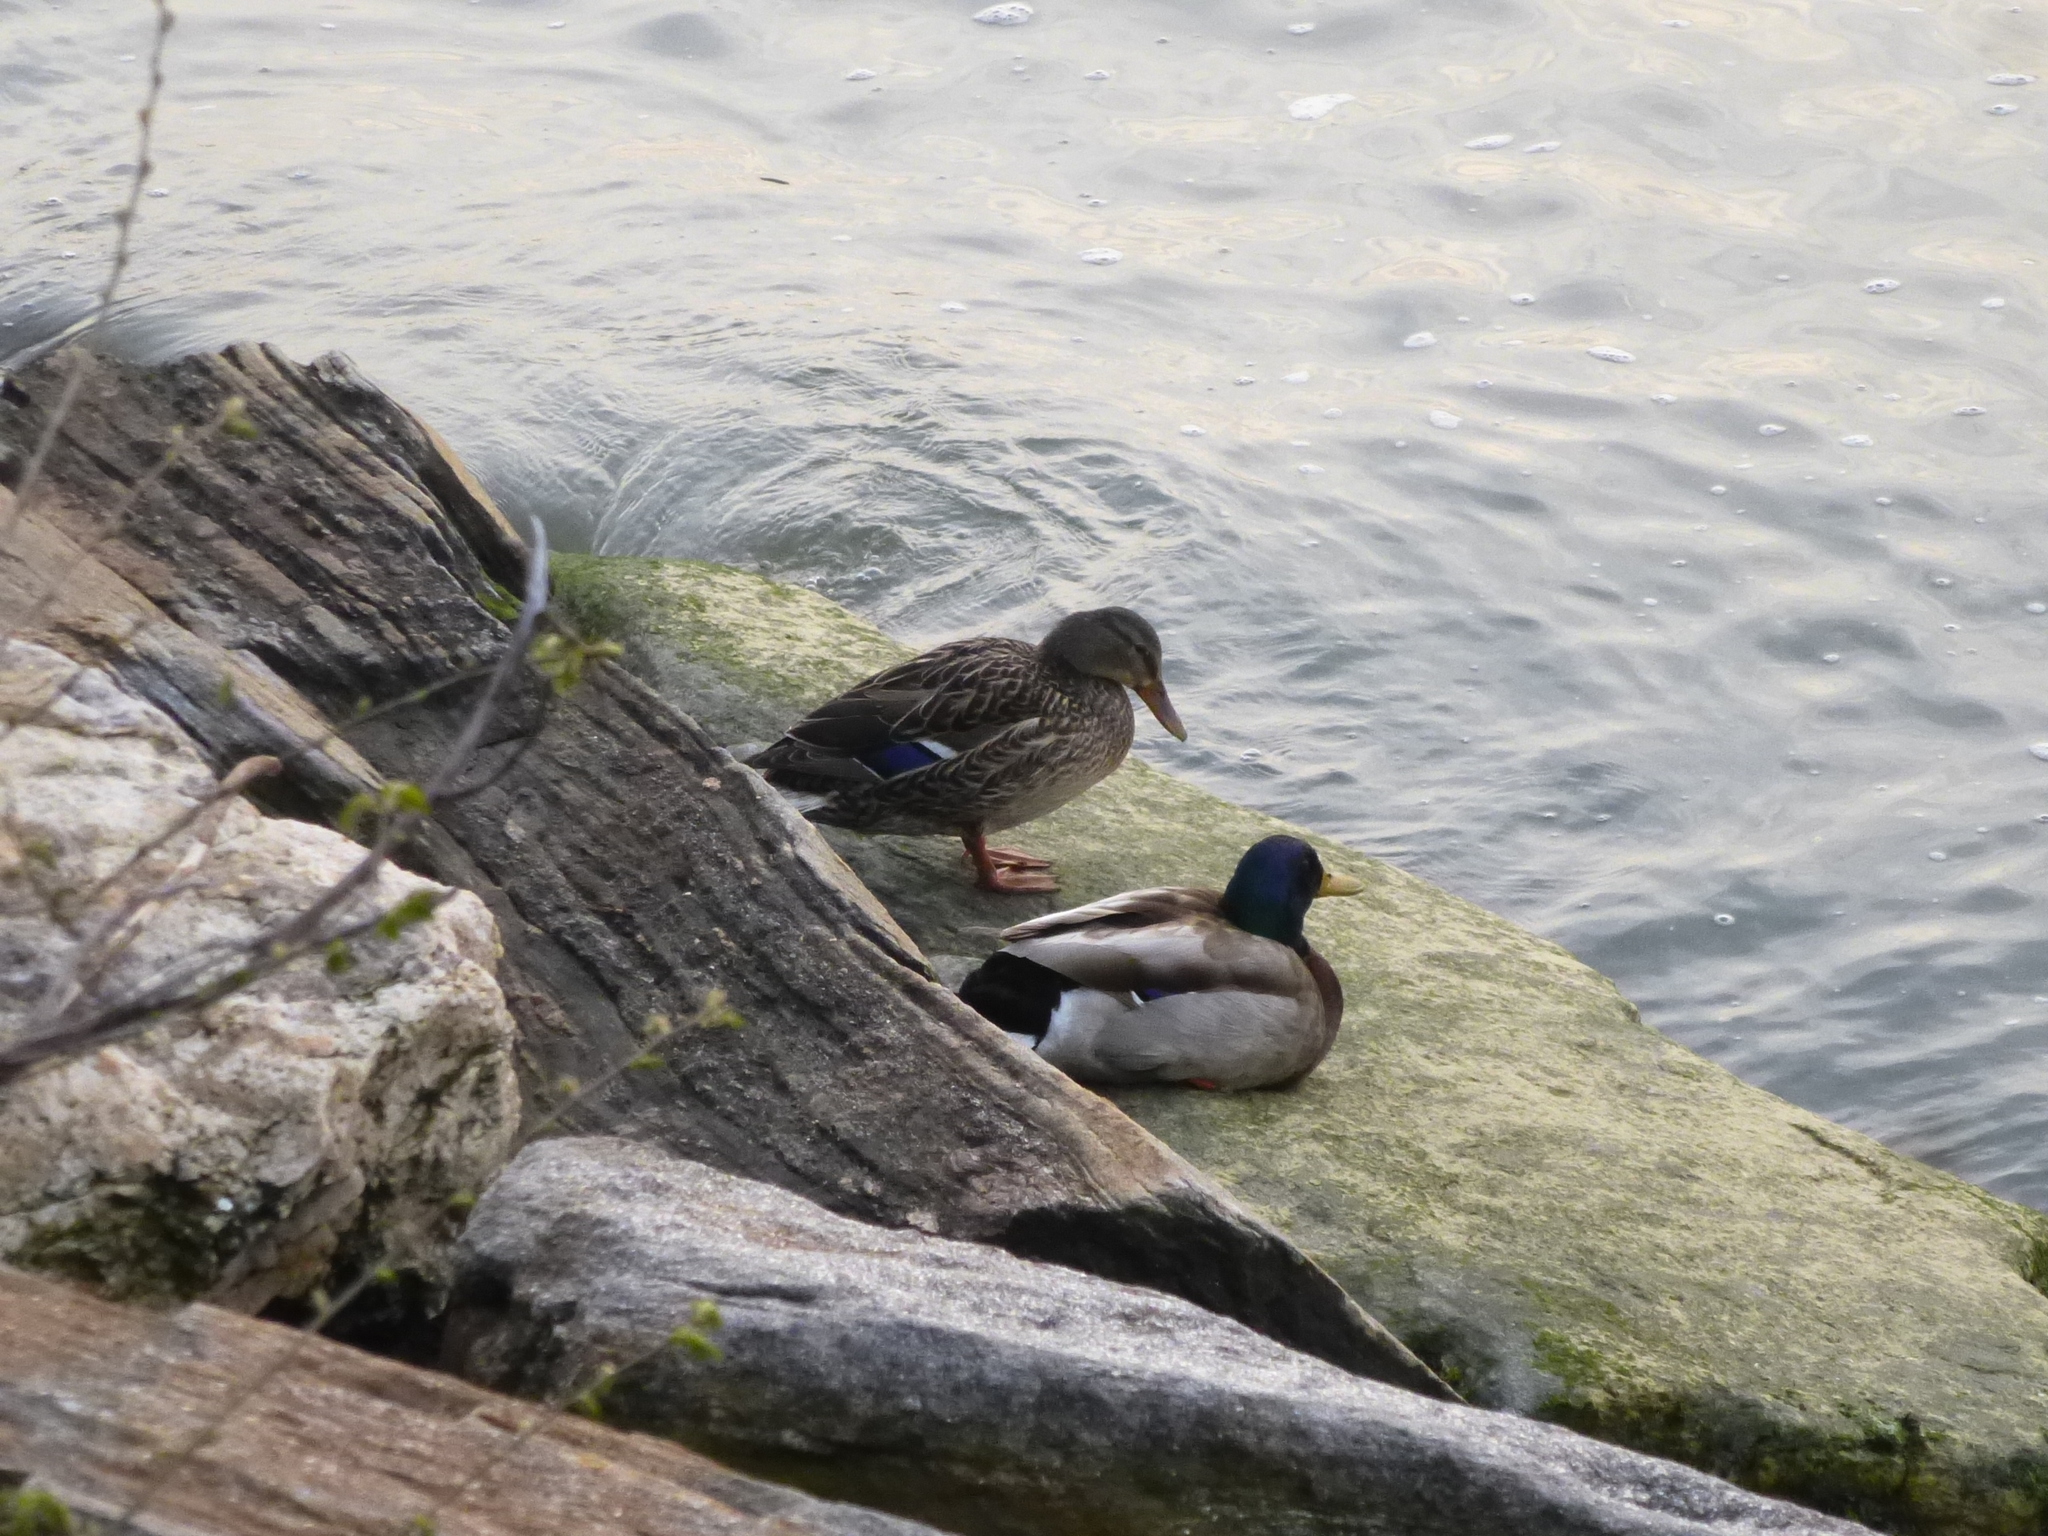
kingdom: Animalia
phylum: Chordata
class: Aves
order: Anseriformes
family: Anatidae
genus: Anas
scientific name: Anas platyrhynchos
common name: Mallard
